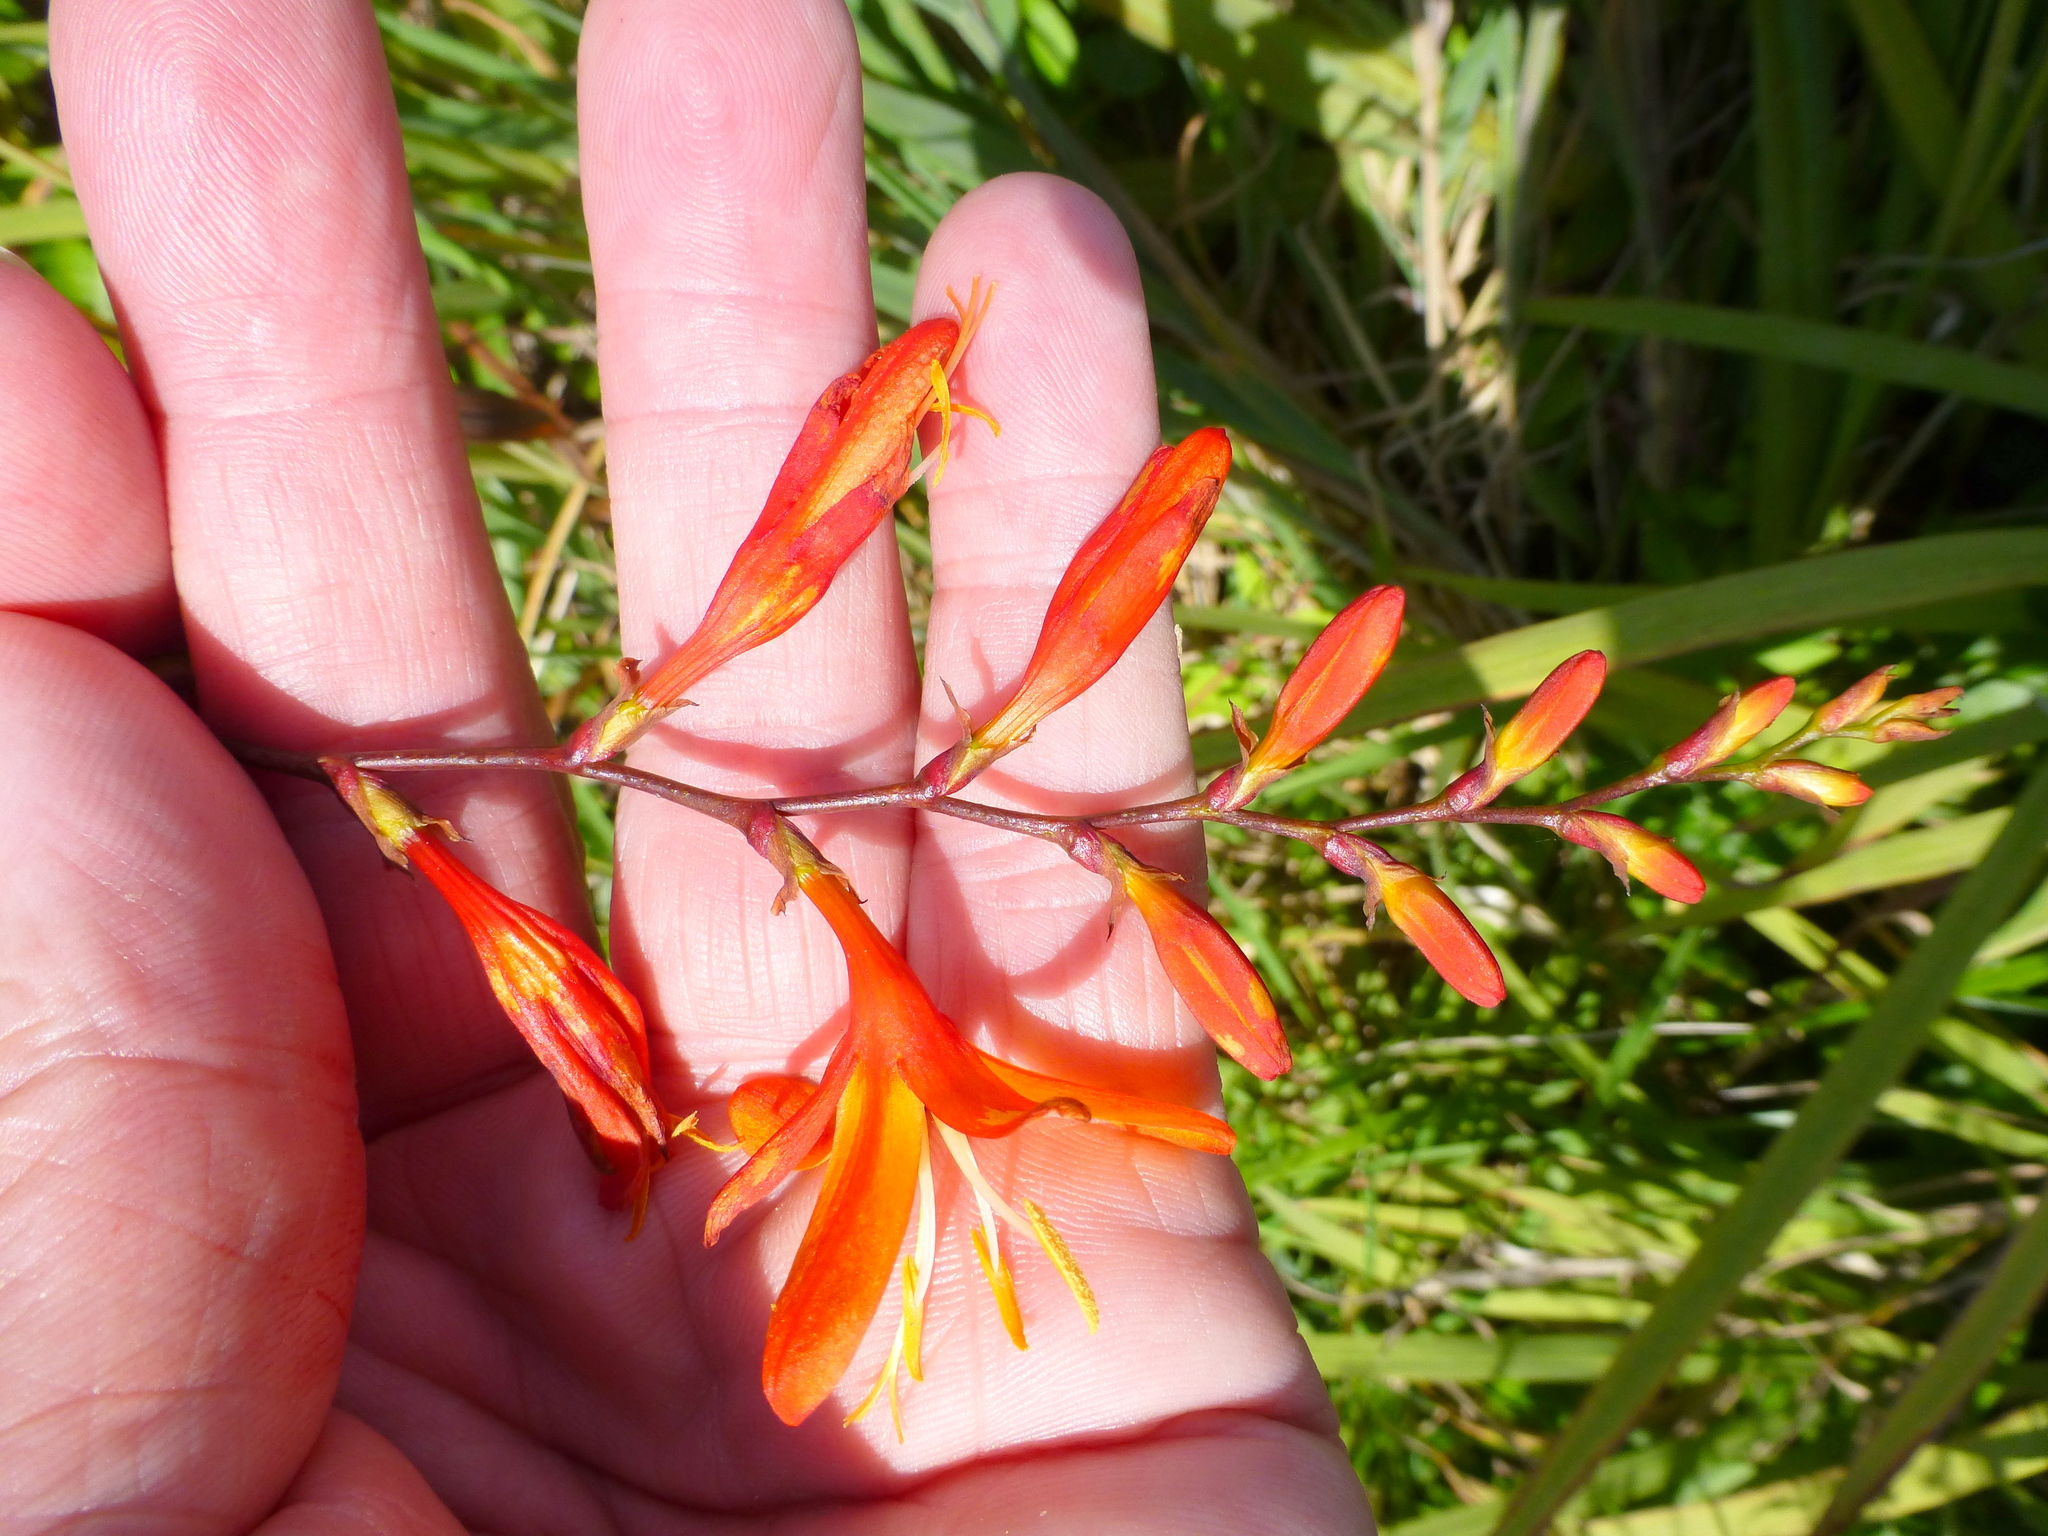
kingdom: Plantae
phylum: Tracheophyta
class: Liliopsida
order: Asparagales
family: Iridaceae
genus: Crocosmia
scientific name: Crocosmia crocosmiiflora
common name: Montbretia
